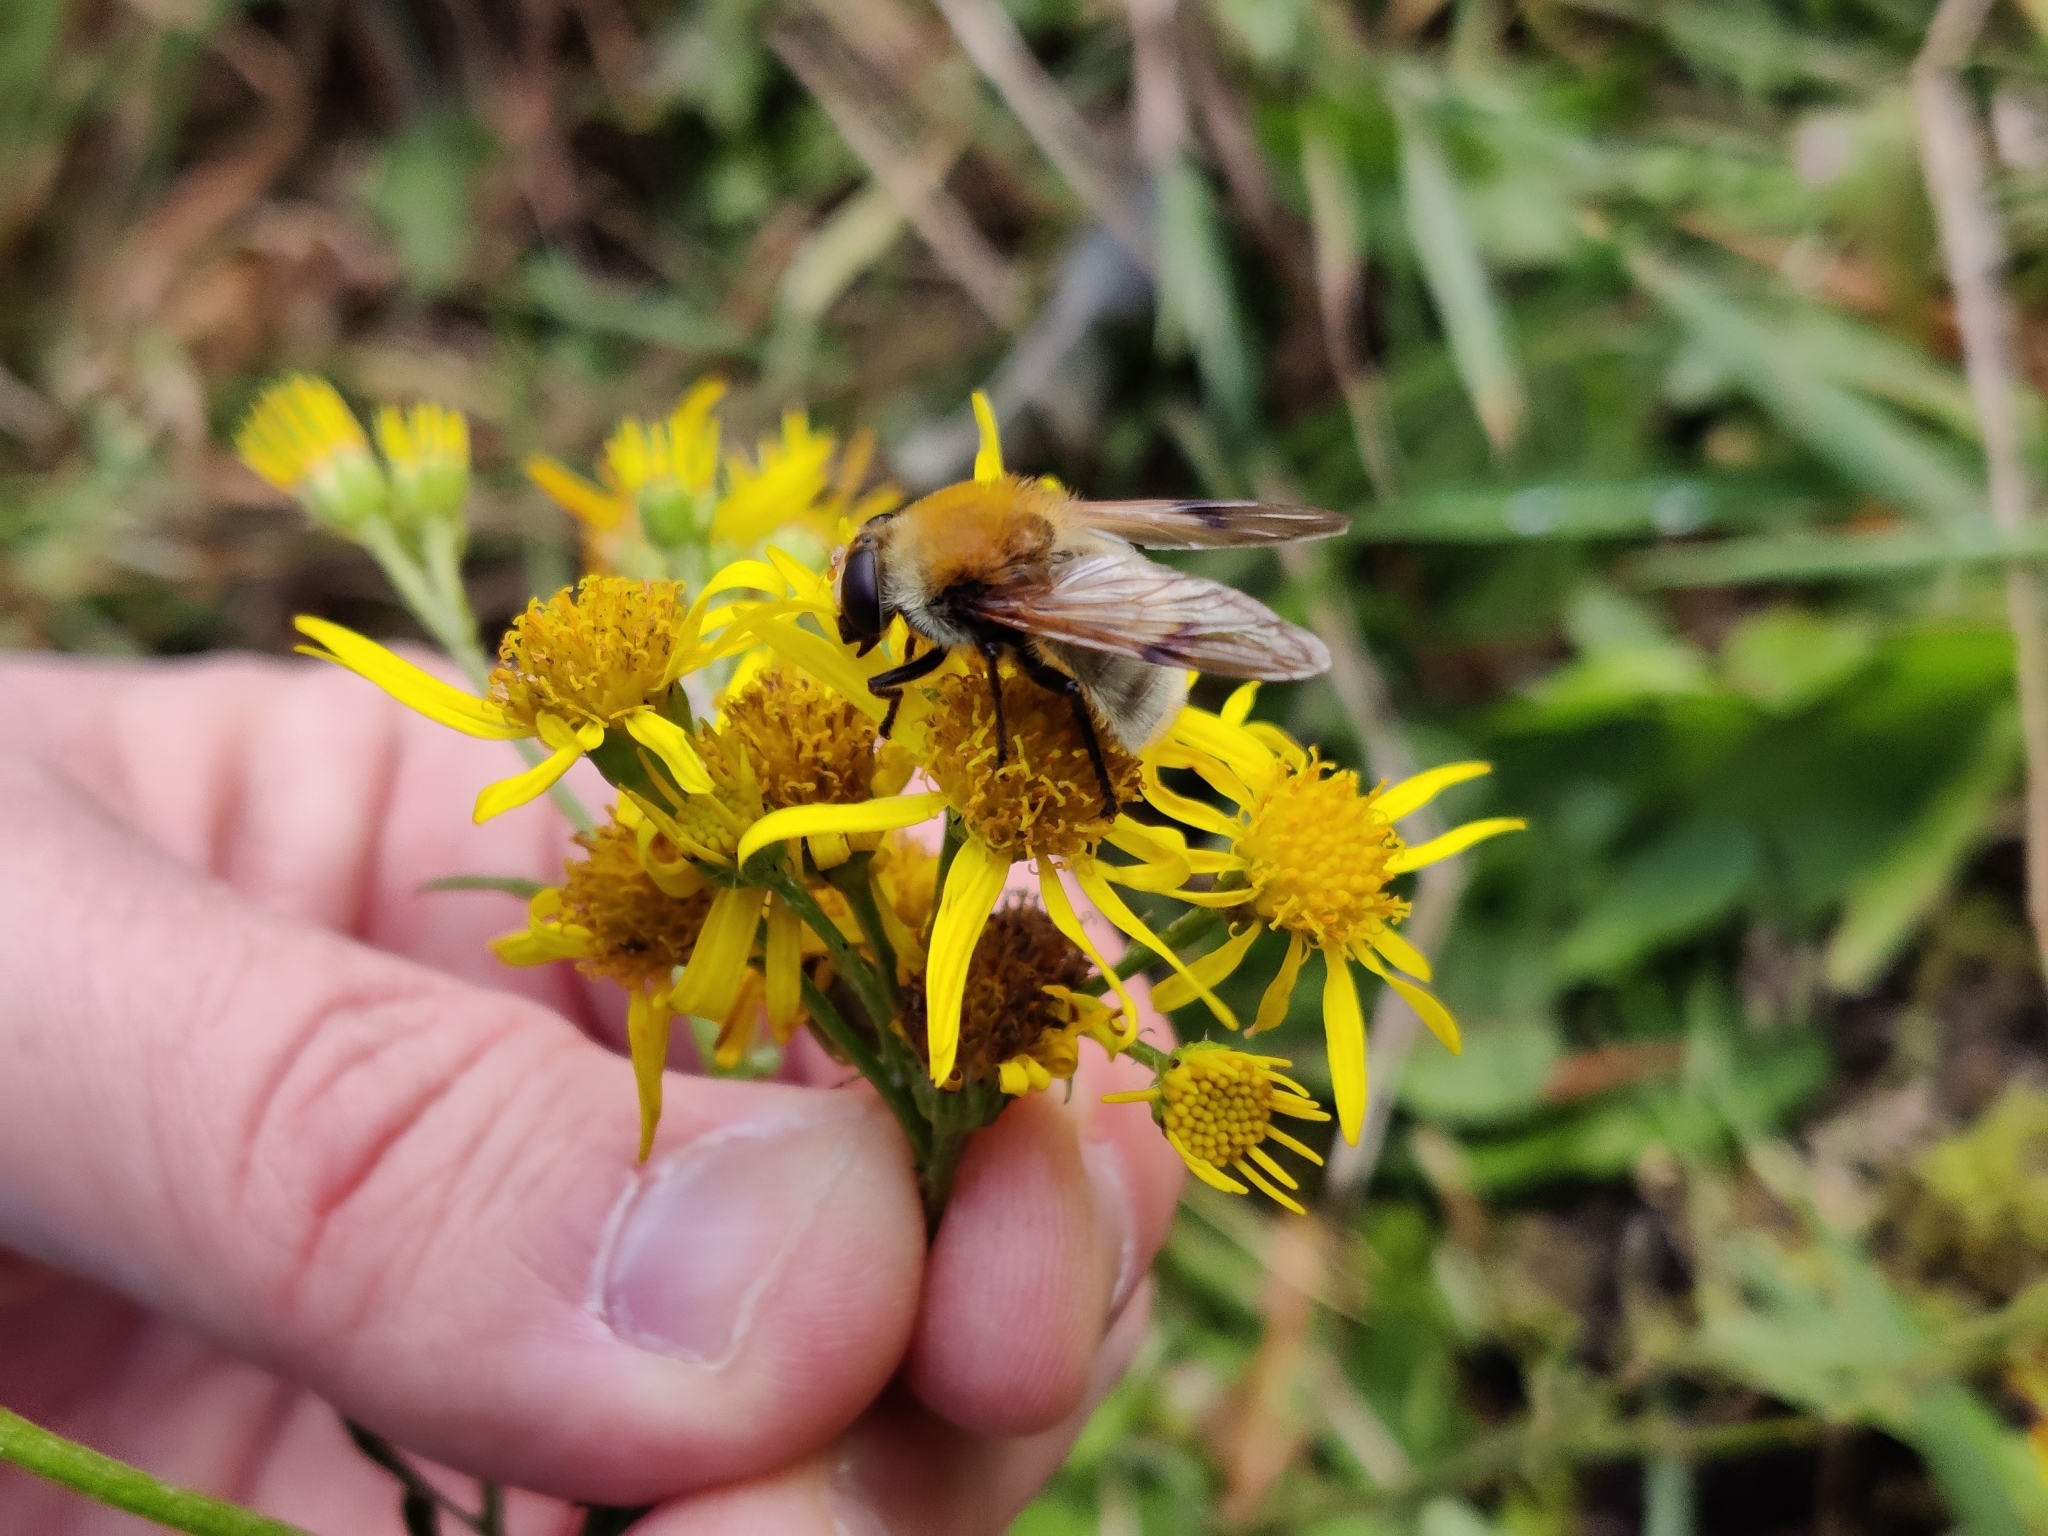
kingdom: Animalia
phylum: Arthropoda
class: Insecta
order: Diptera
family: Syrphidae
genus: Sericomyia
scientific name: Sericomyia superbiens
